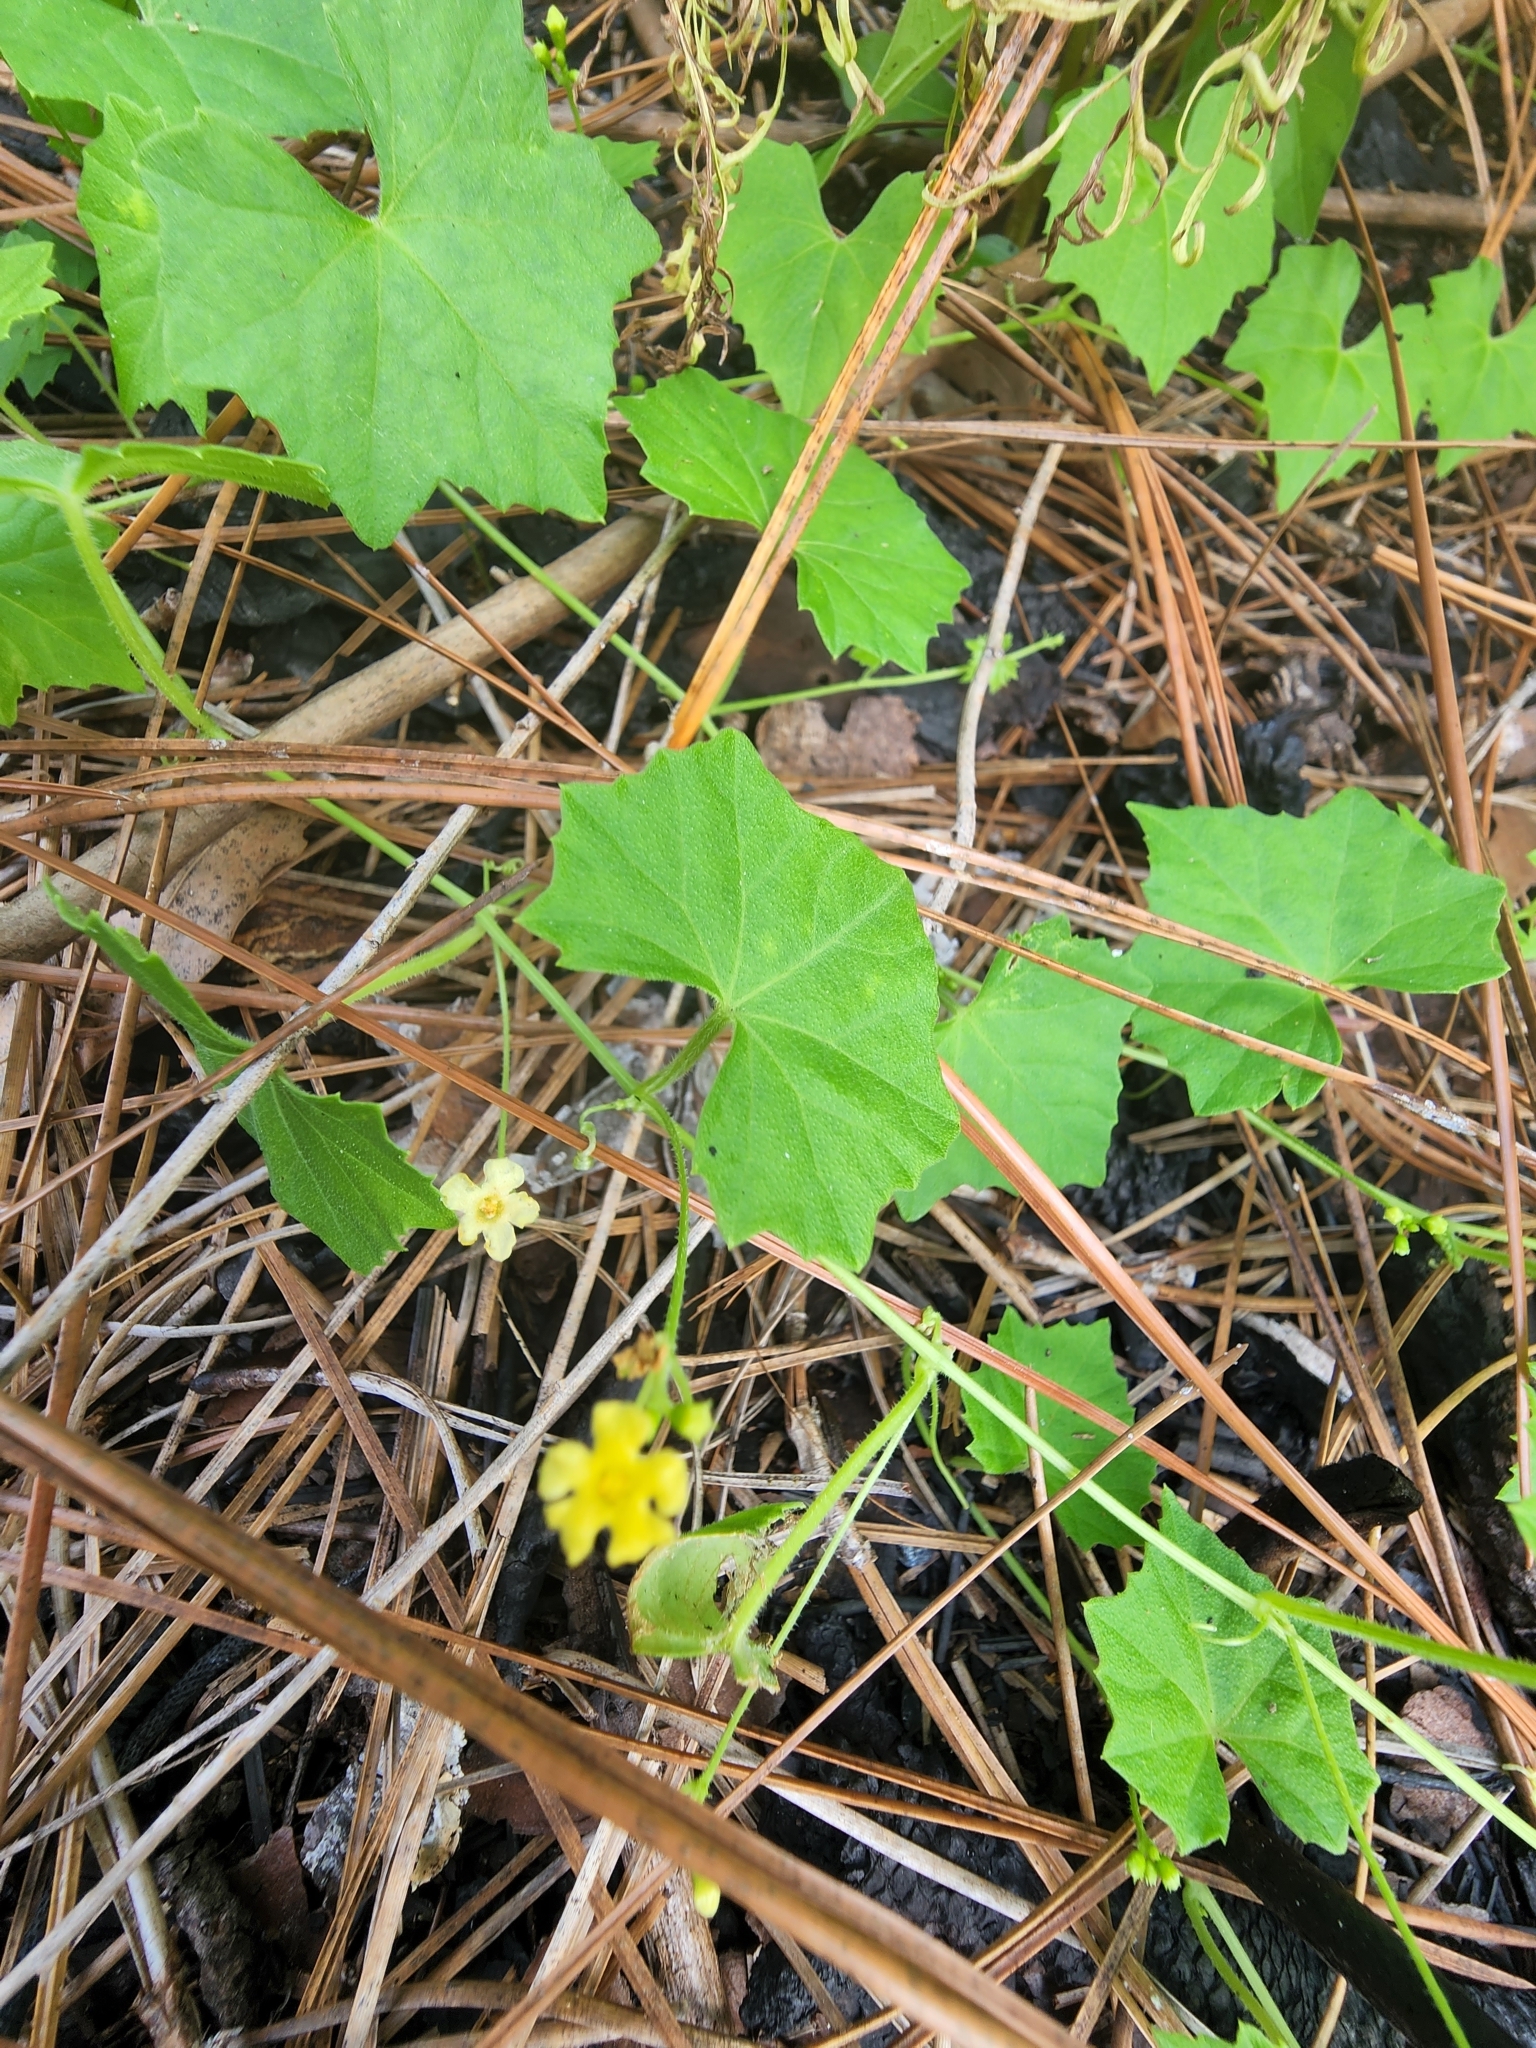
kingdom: Plantae
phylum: Tracheophyta
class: Magnoliopsida
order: Cucurbitales
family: Cucurbitaceae
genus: Melothria
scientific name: Melothria pendula
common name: Creeping-cucumber
